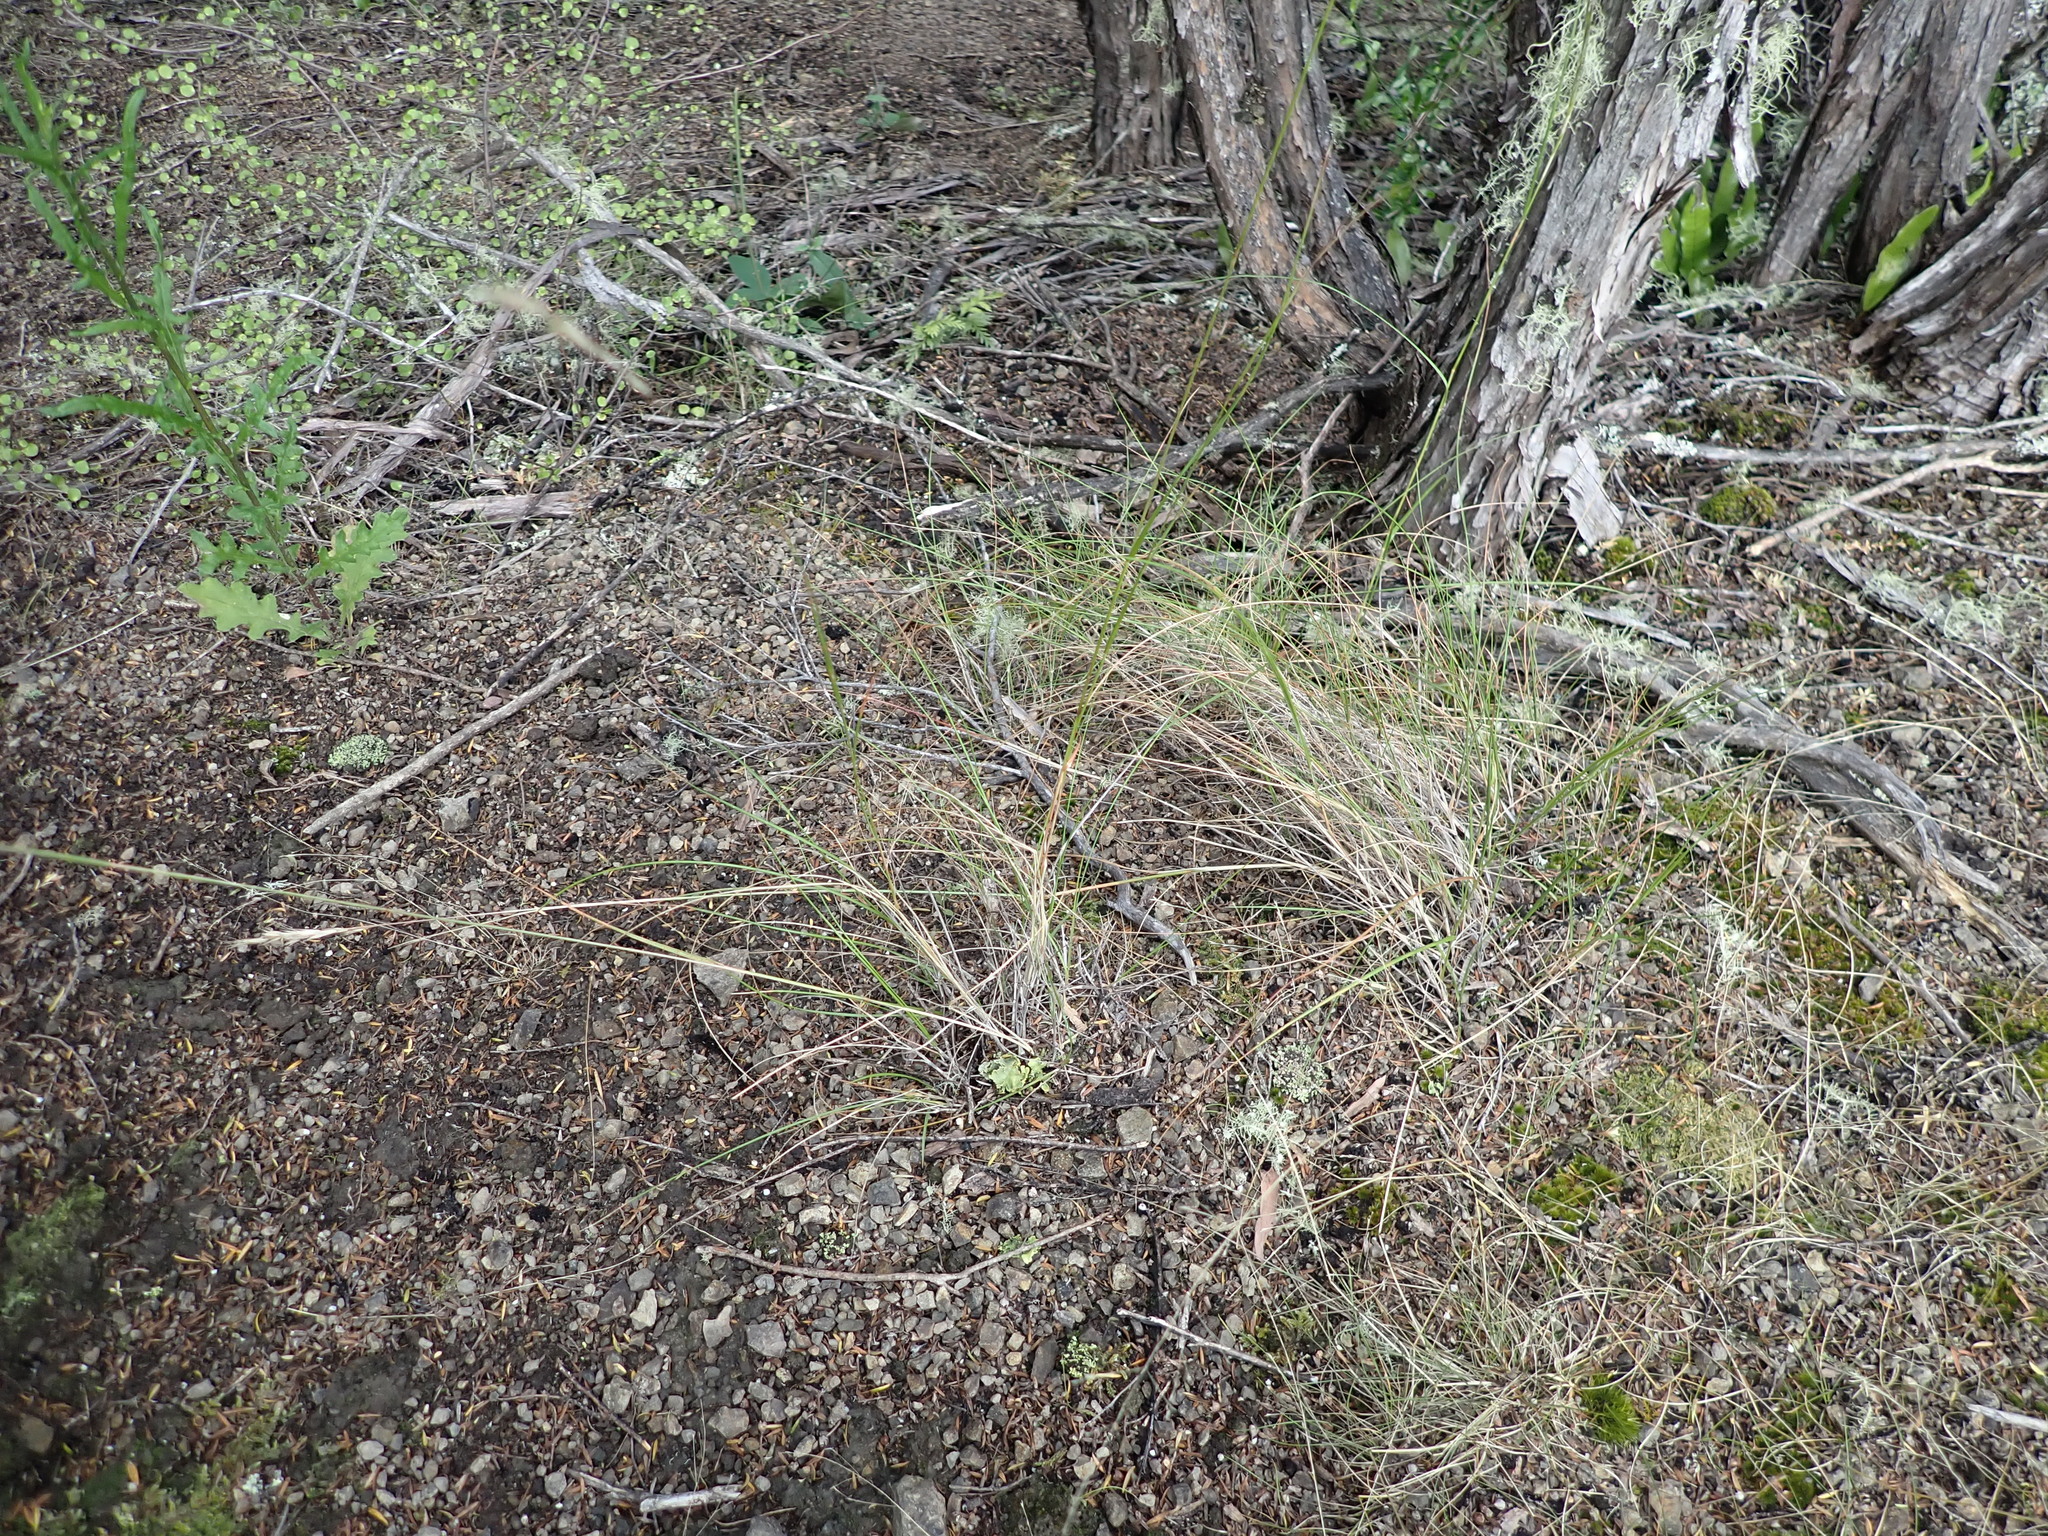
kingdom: Plantae
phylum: Tracheophyta
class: Liliopsida
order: Poales
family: Poaceae
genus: Rytidosperma
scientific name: Rytidosperma racemosum
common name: Wallaby-grass
